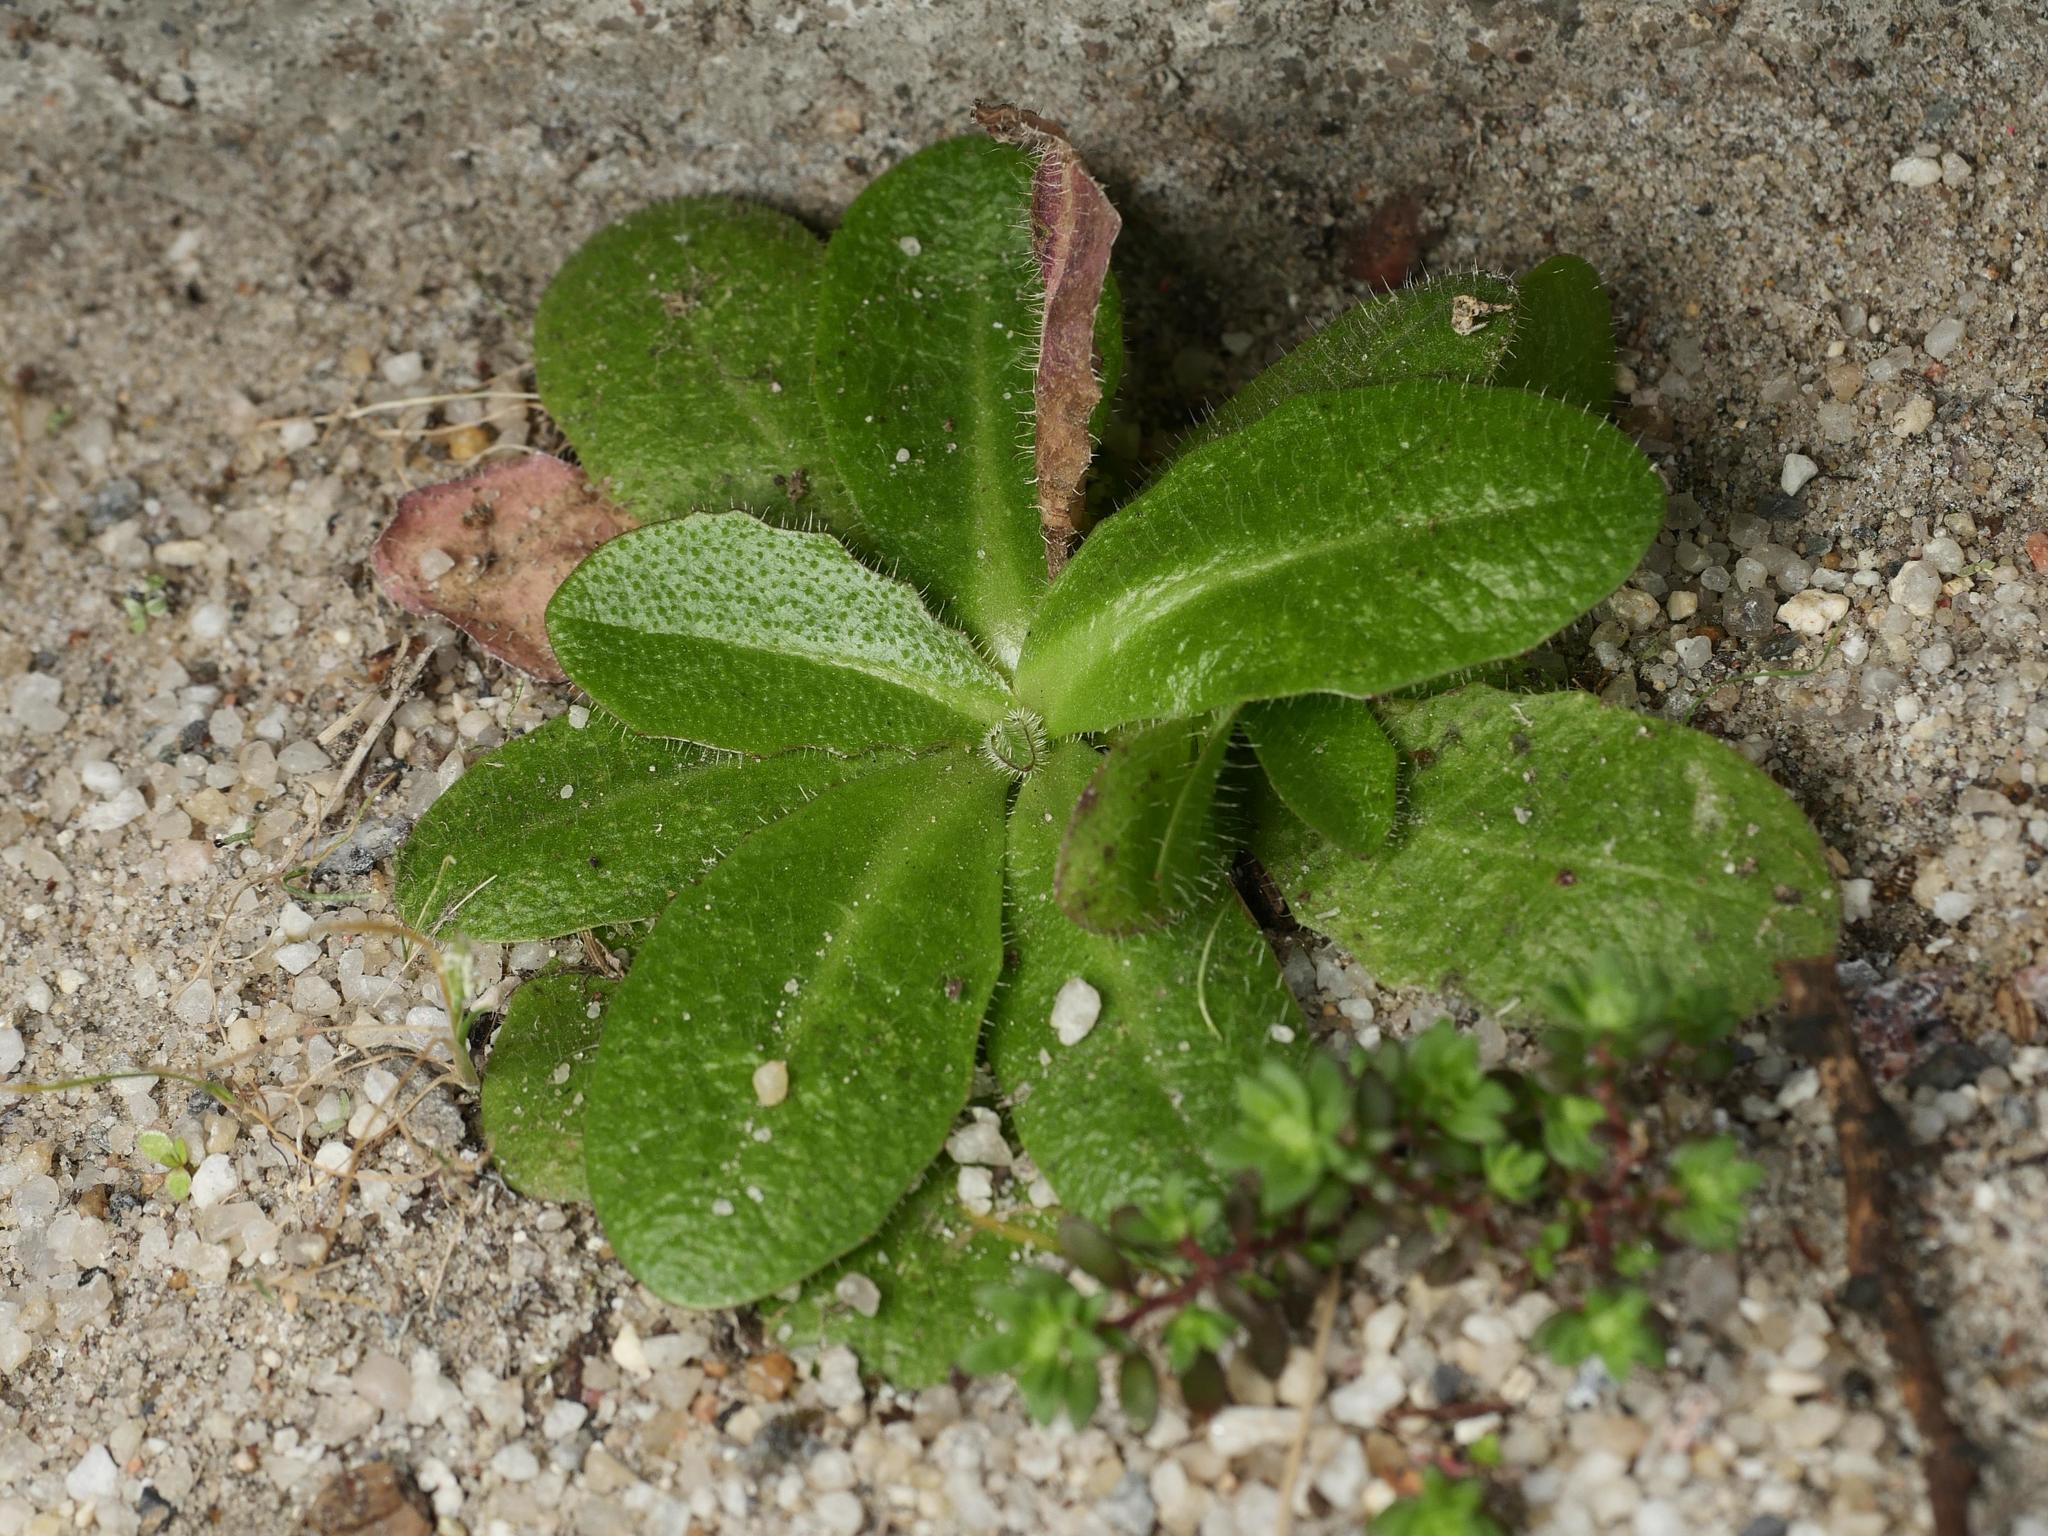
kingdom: Plantae
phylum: Tracheophyta
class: Magnoliopsida
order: Asterales
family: Asteraceae
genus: Hypochaeris
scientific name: Hypochaeris radicata
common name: Flatweed
